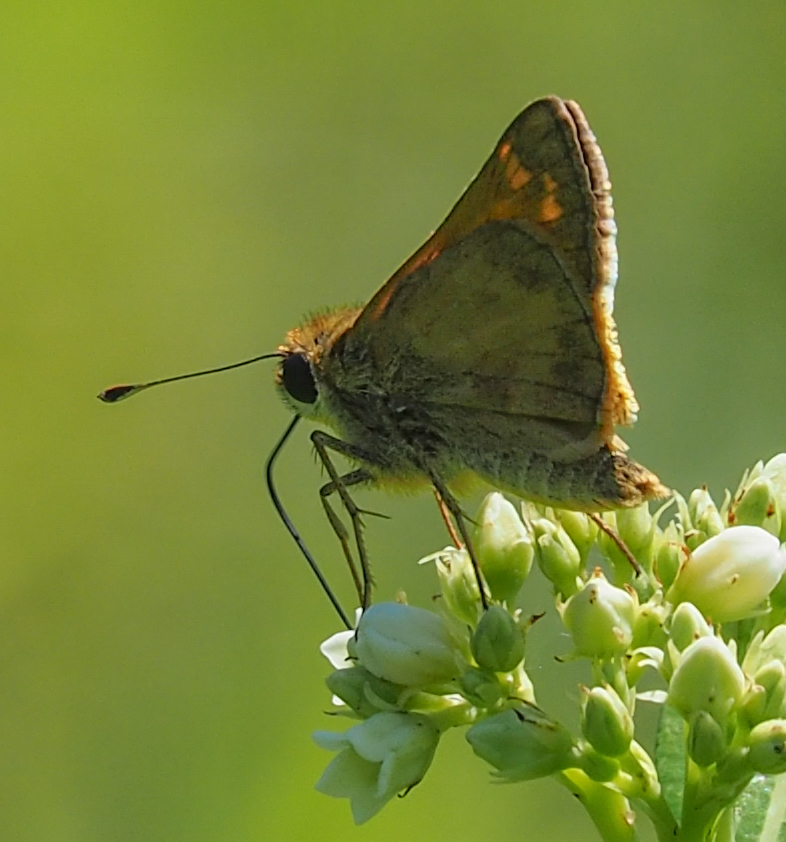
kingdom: Animalia
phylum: Arthropoda
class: Insecta
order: Lepidoptera
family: Hesperiidae
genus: Atalopedes
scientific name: Atalopedes
